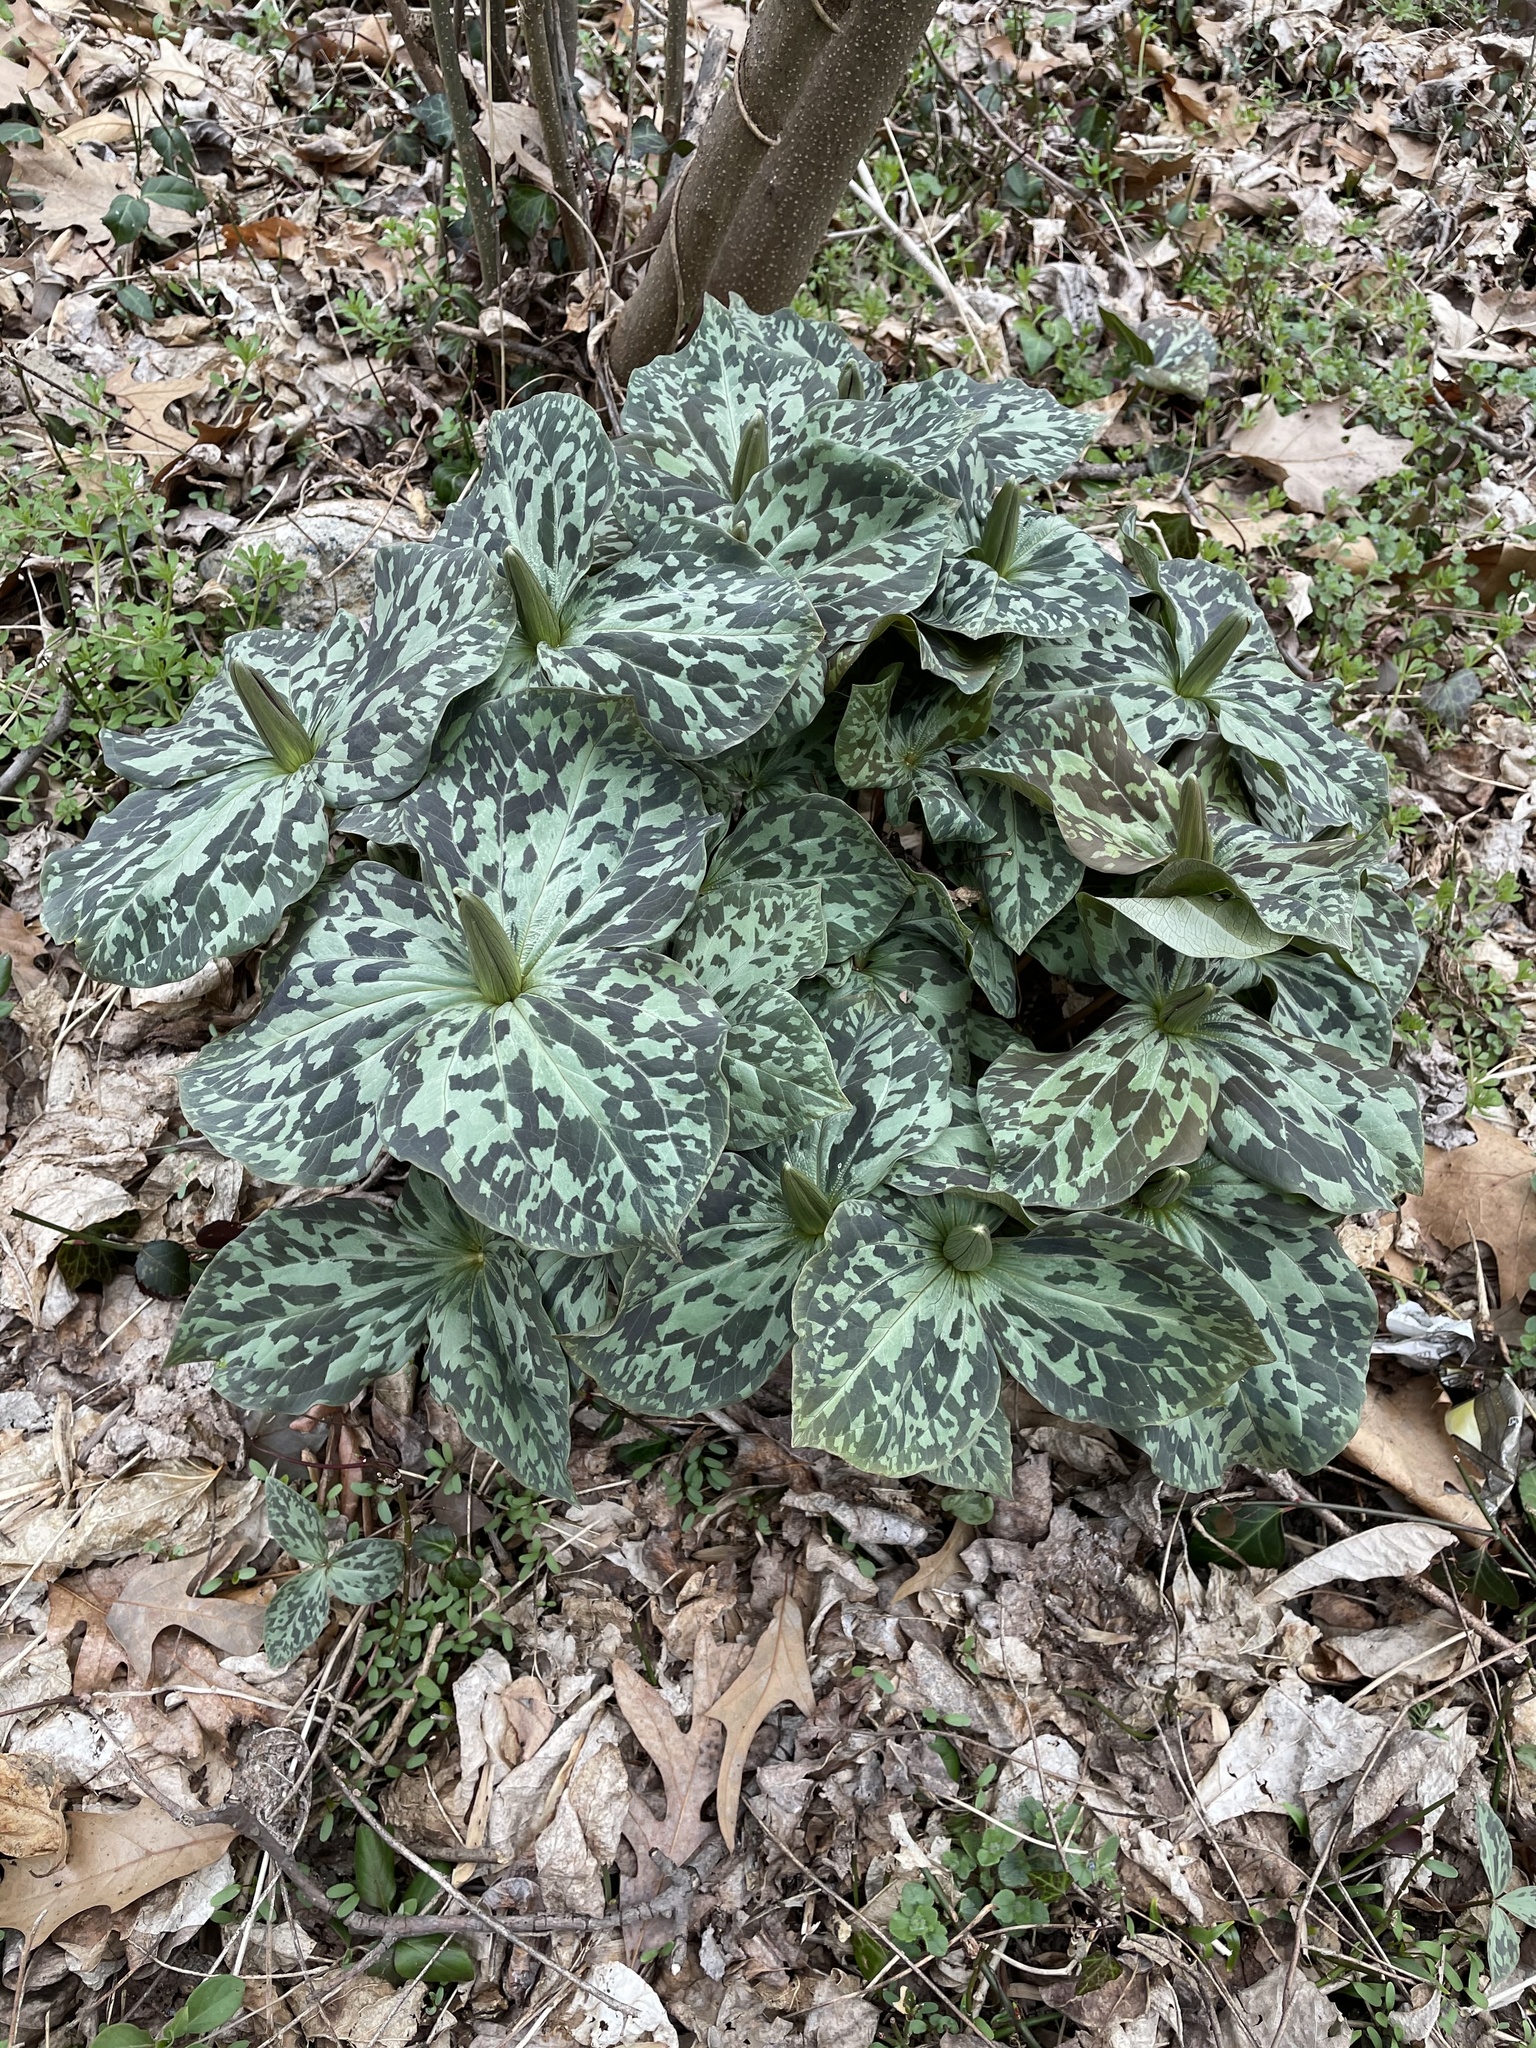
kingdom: Plantae
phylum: Tracheophyta
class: Liliopsida
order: Liliales
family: Melanthiaceae
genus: Trillium
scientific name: Trillium cuneatum
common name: Cuneate trillium
